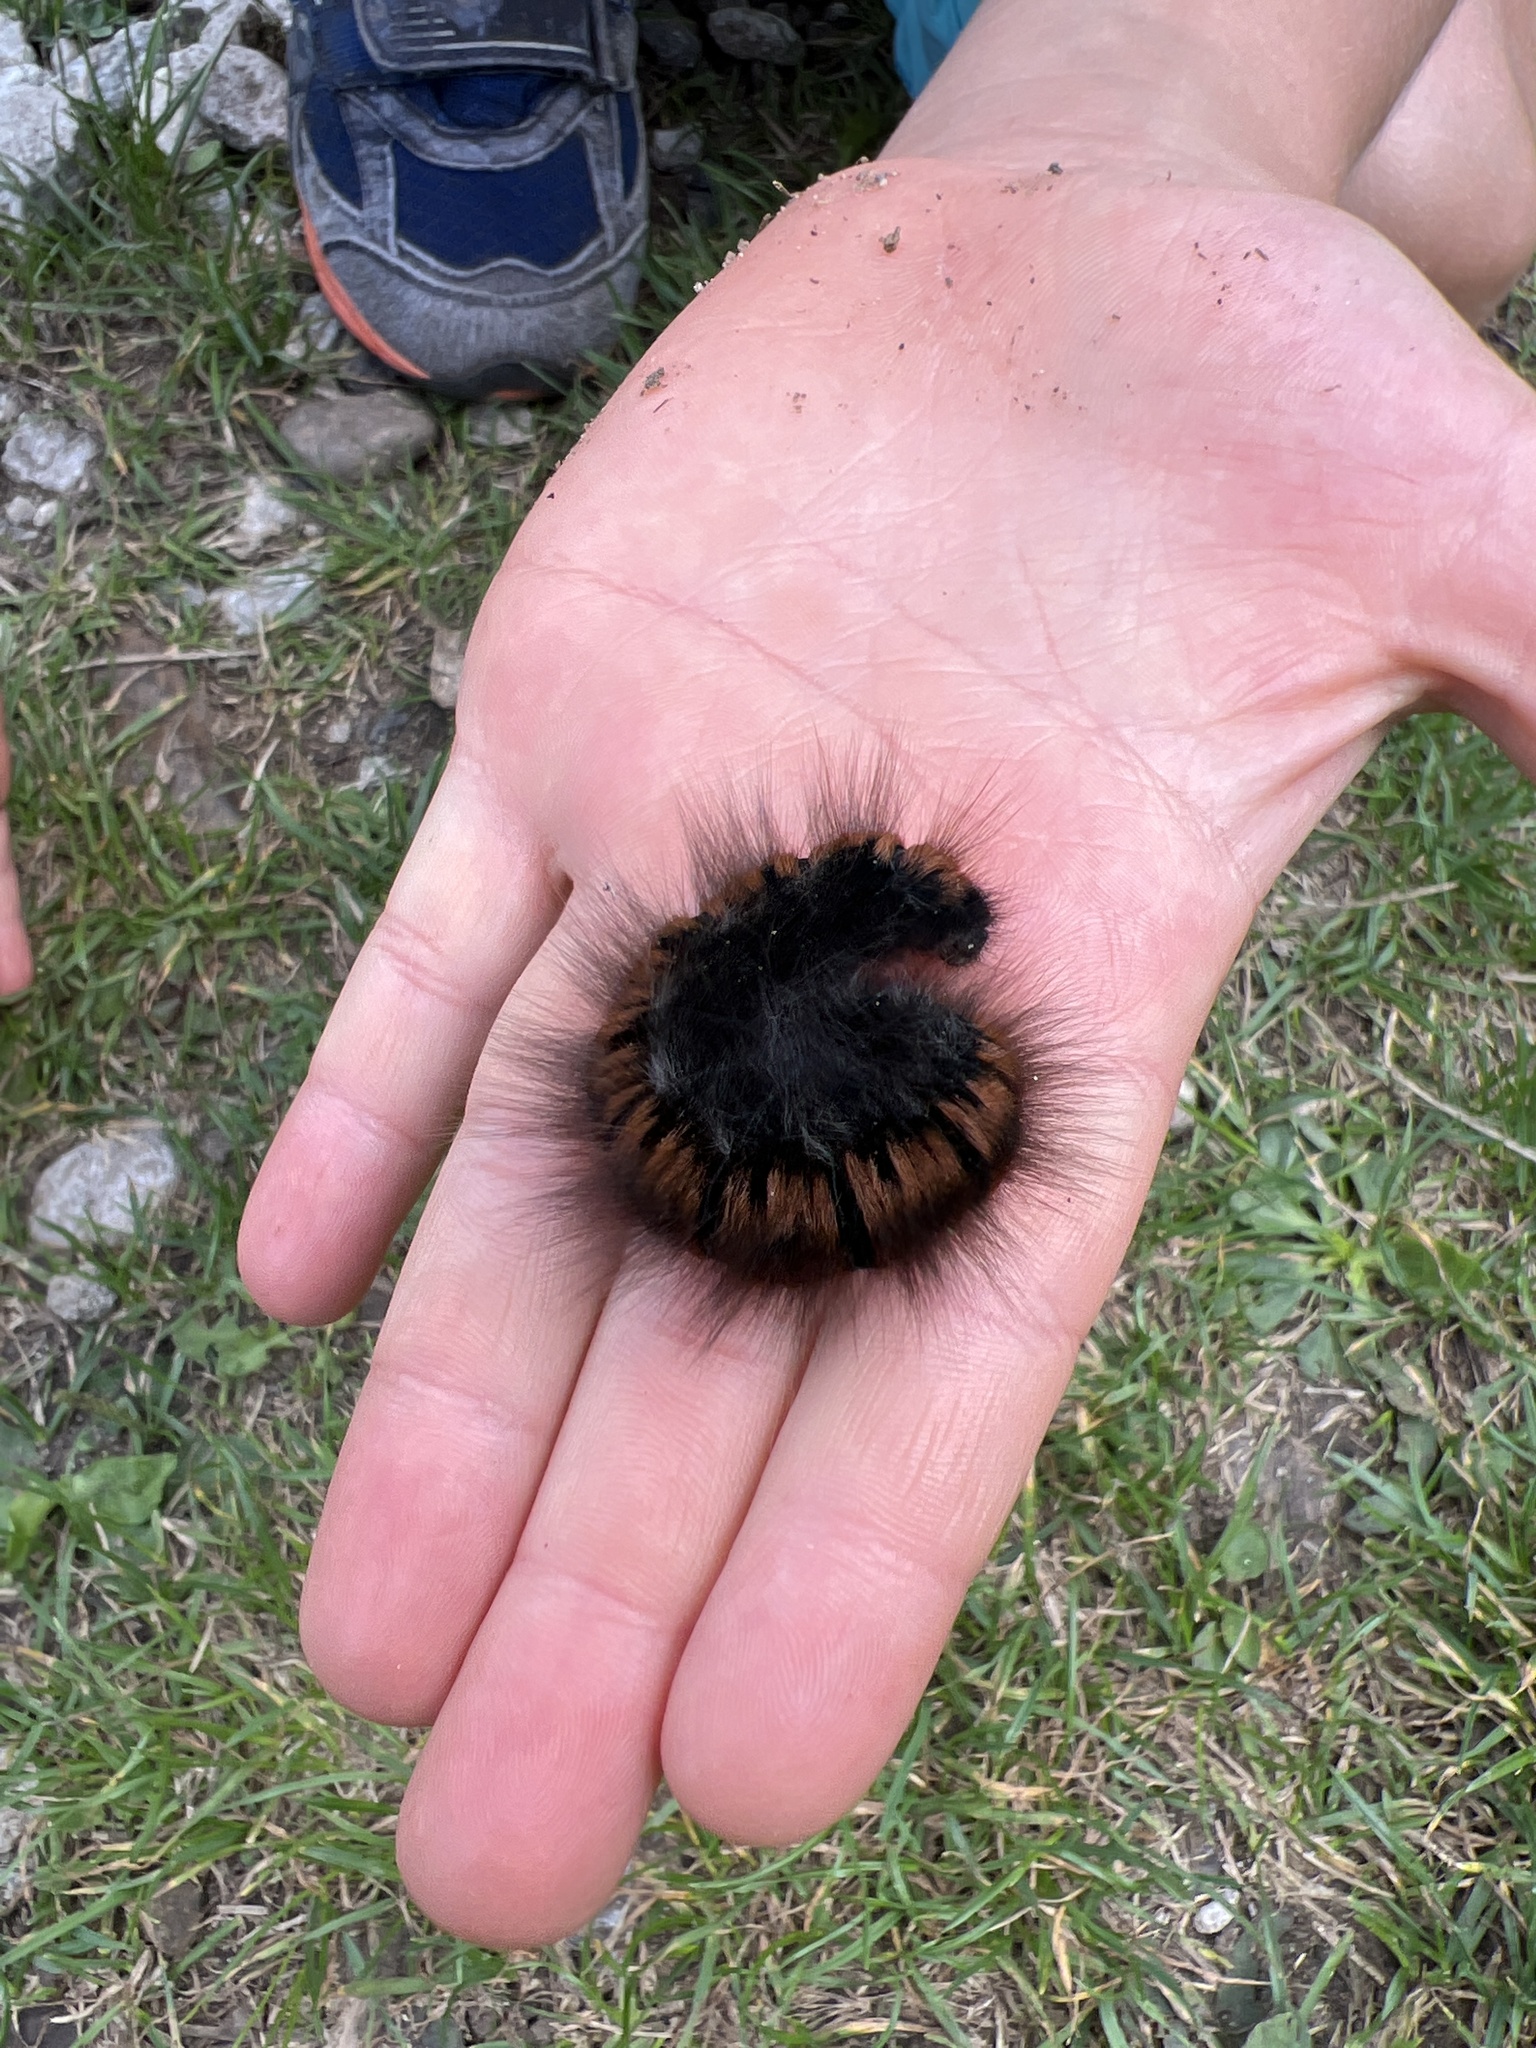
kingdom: Animalia
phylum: Arthropoda
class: Insecta
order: Lepidoptera
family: Lasiocampidae
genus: Macrothylacia
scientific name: Macrothylacia rubi
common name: Fox moth
